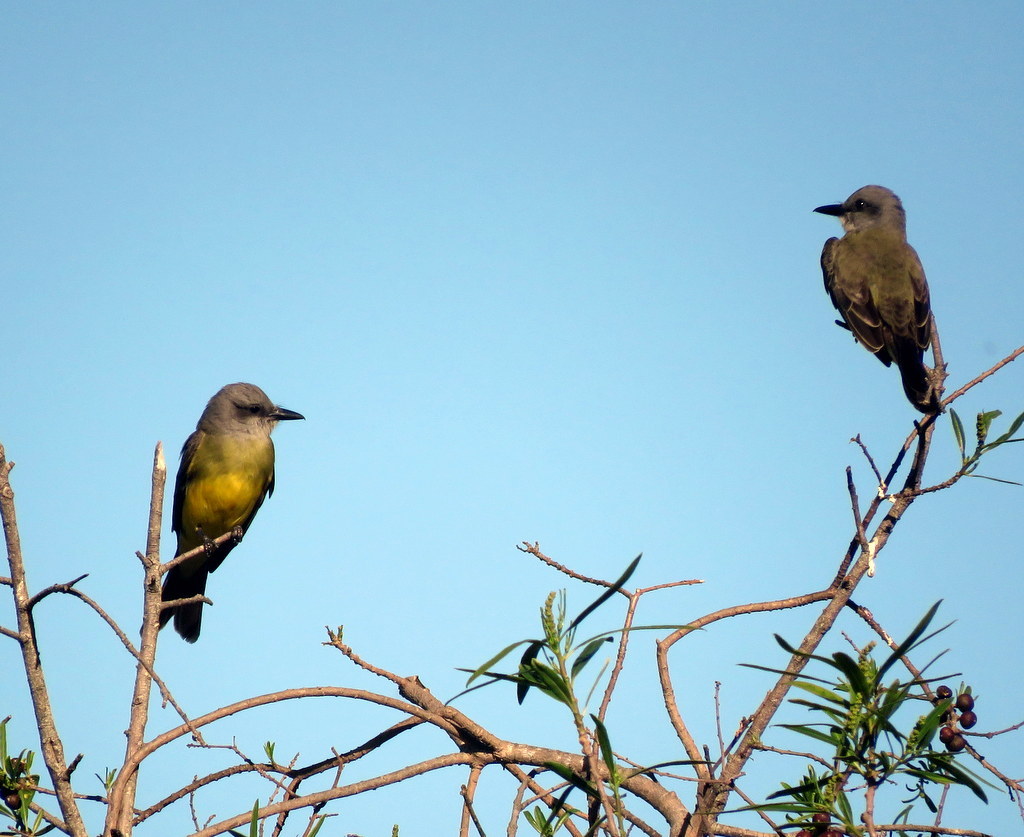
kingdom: Animalia
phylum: Chordata
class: Aves
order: Passeriformes
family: Tyrannidae
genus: Tyrannus
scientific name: Tyrannus melancholicus
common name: Tropical kingbird
